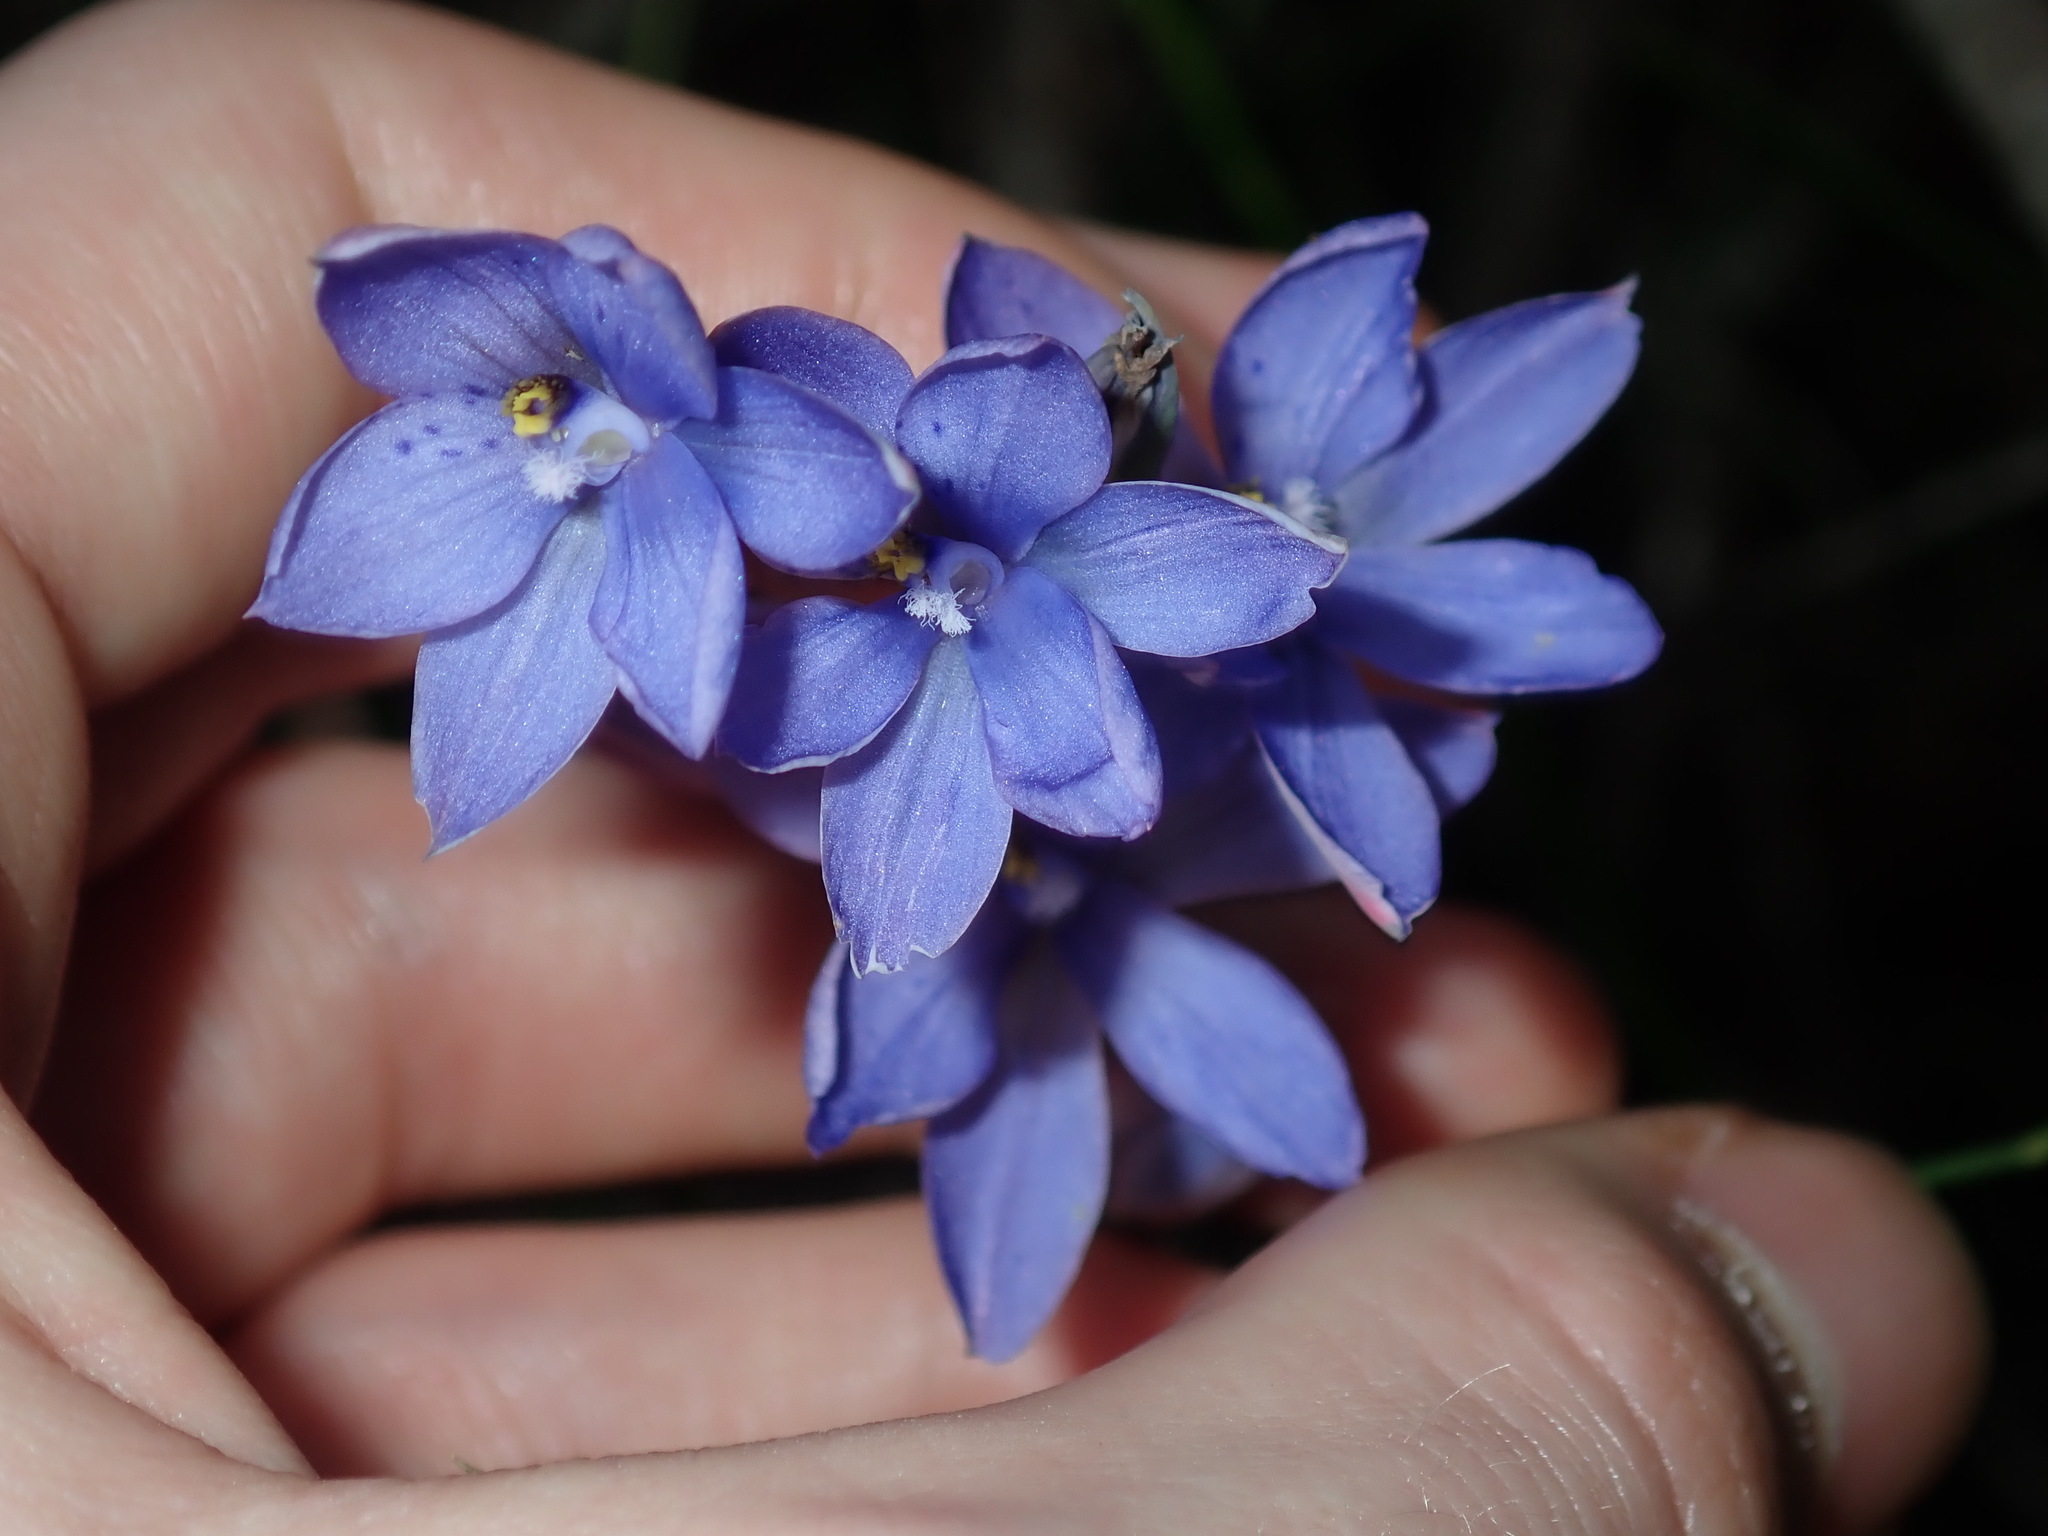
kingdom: Plantae
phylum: Tracheophyta
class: Liliopsida
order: Asparagales
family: Orchidaceae
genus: Thelymitra
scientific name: Thelymitra ixioides
